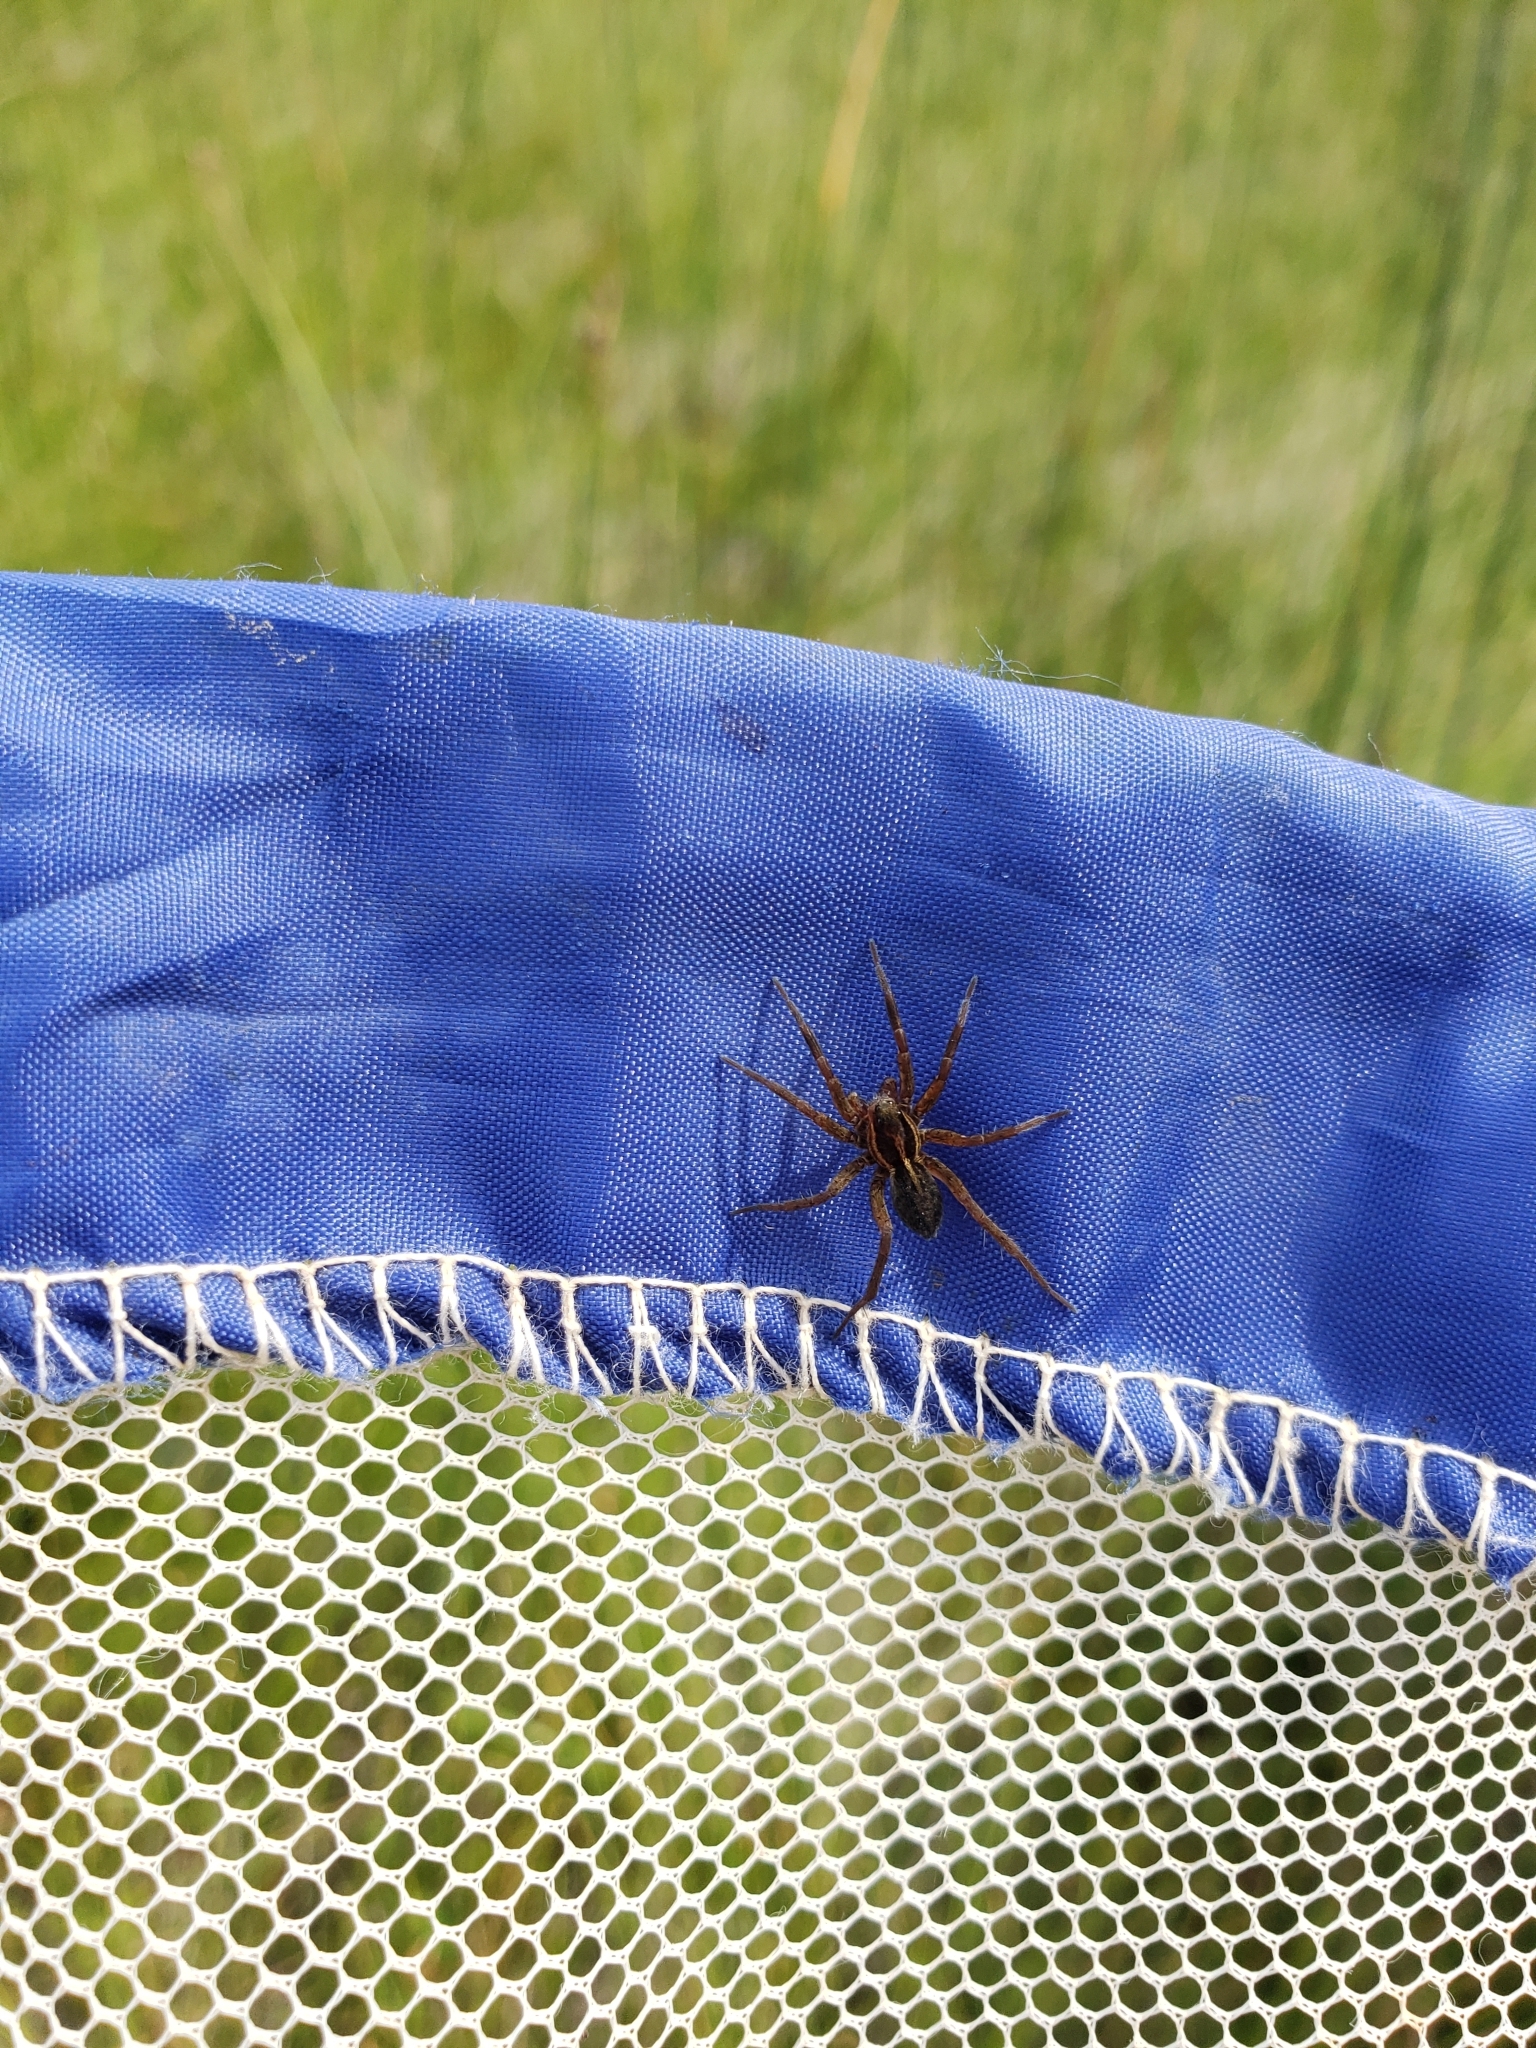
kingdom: Animalia
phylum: Arthropoda
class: Arachnida
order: Araneae
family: Lycosidae
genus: Pardosa
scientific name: Pardosa modica
